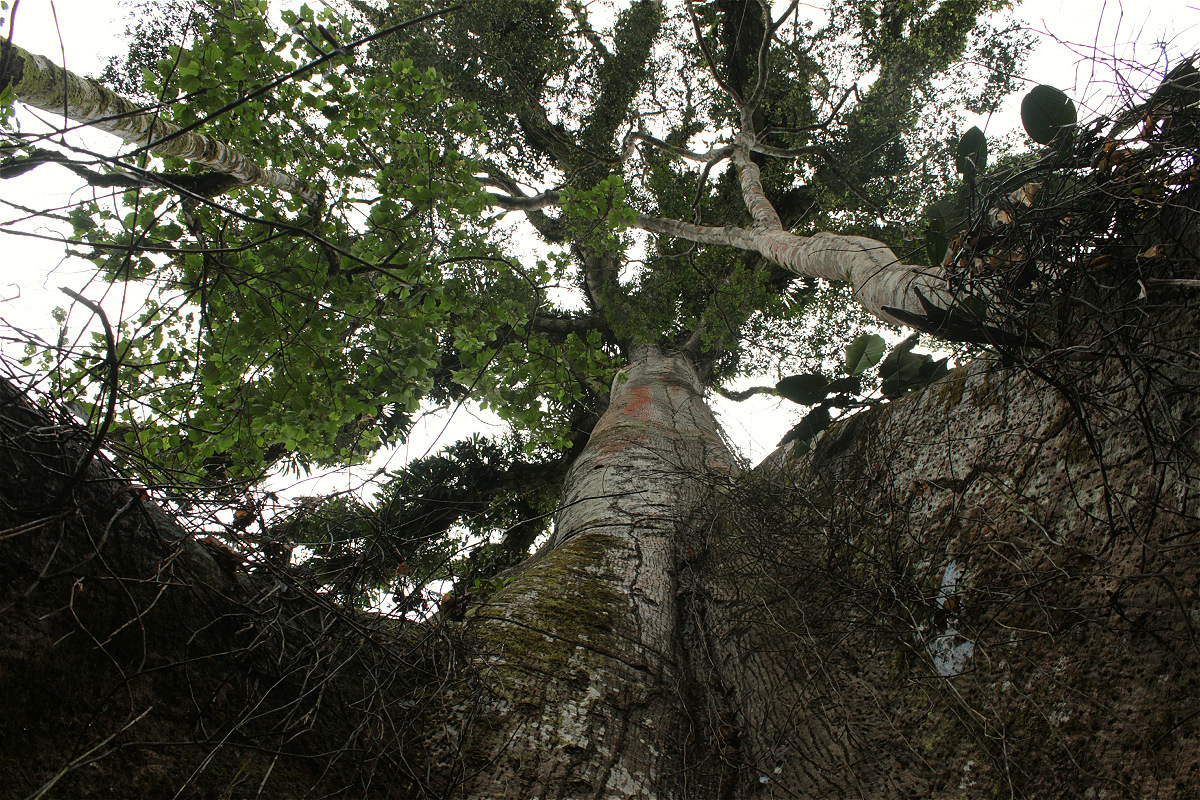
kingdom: Plantae
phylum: Tracheophyta
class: Magnoliopsida
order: Malvales
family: Malvaceae
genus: Ceiba
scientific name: Ceiba pentandra
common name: Kapok
